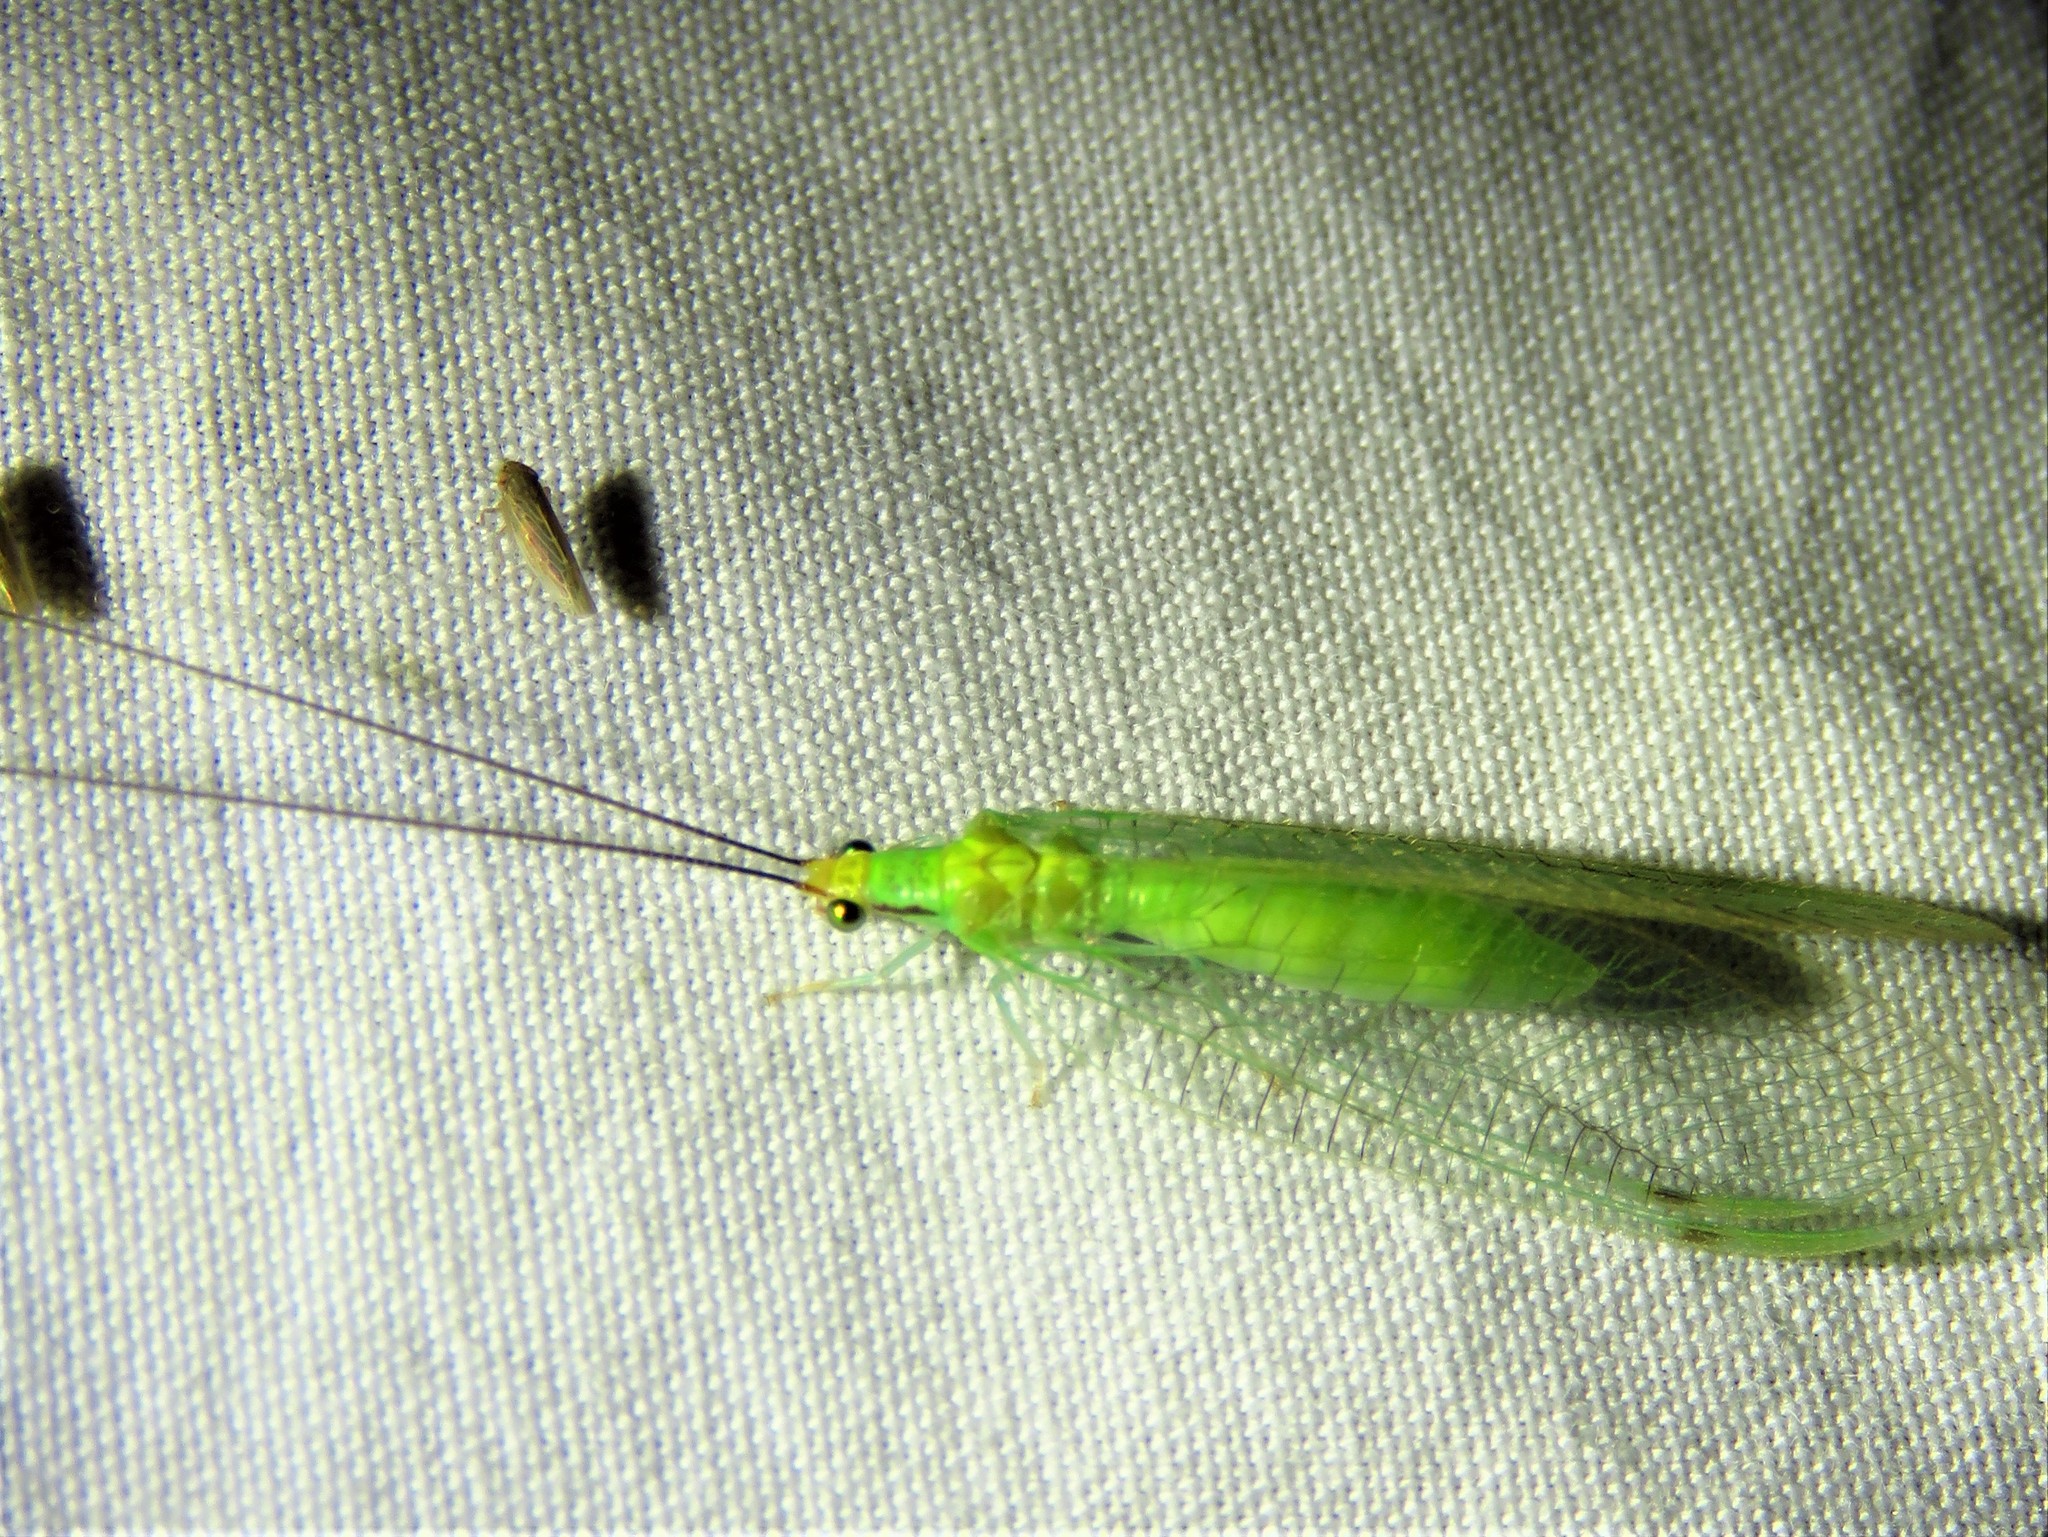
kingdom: Animalia
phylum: Arthropoda
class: Insecta
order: Neuroptera
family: Chrysopidae
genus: Leucochrysa
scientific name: Leucochrysa pavida
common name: Lichen-carrying green lacewing
